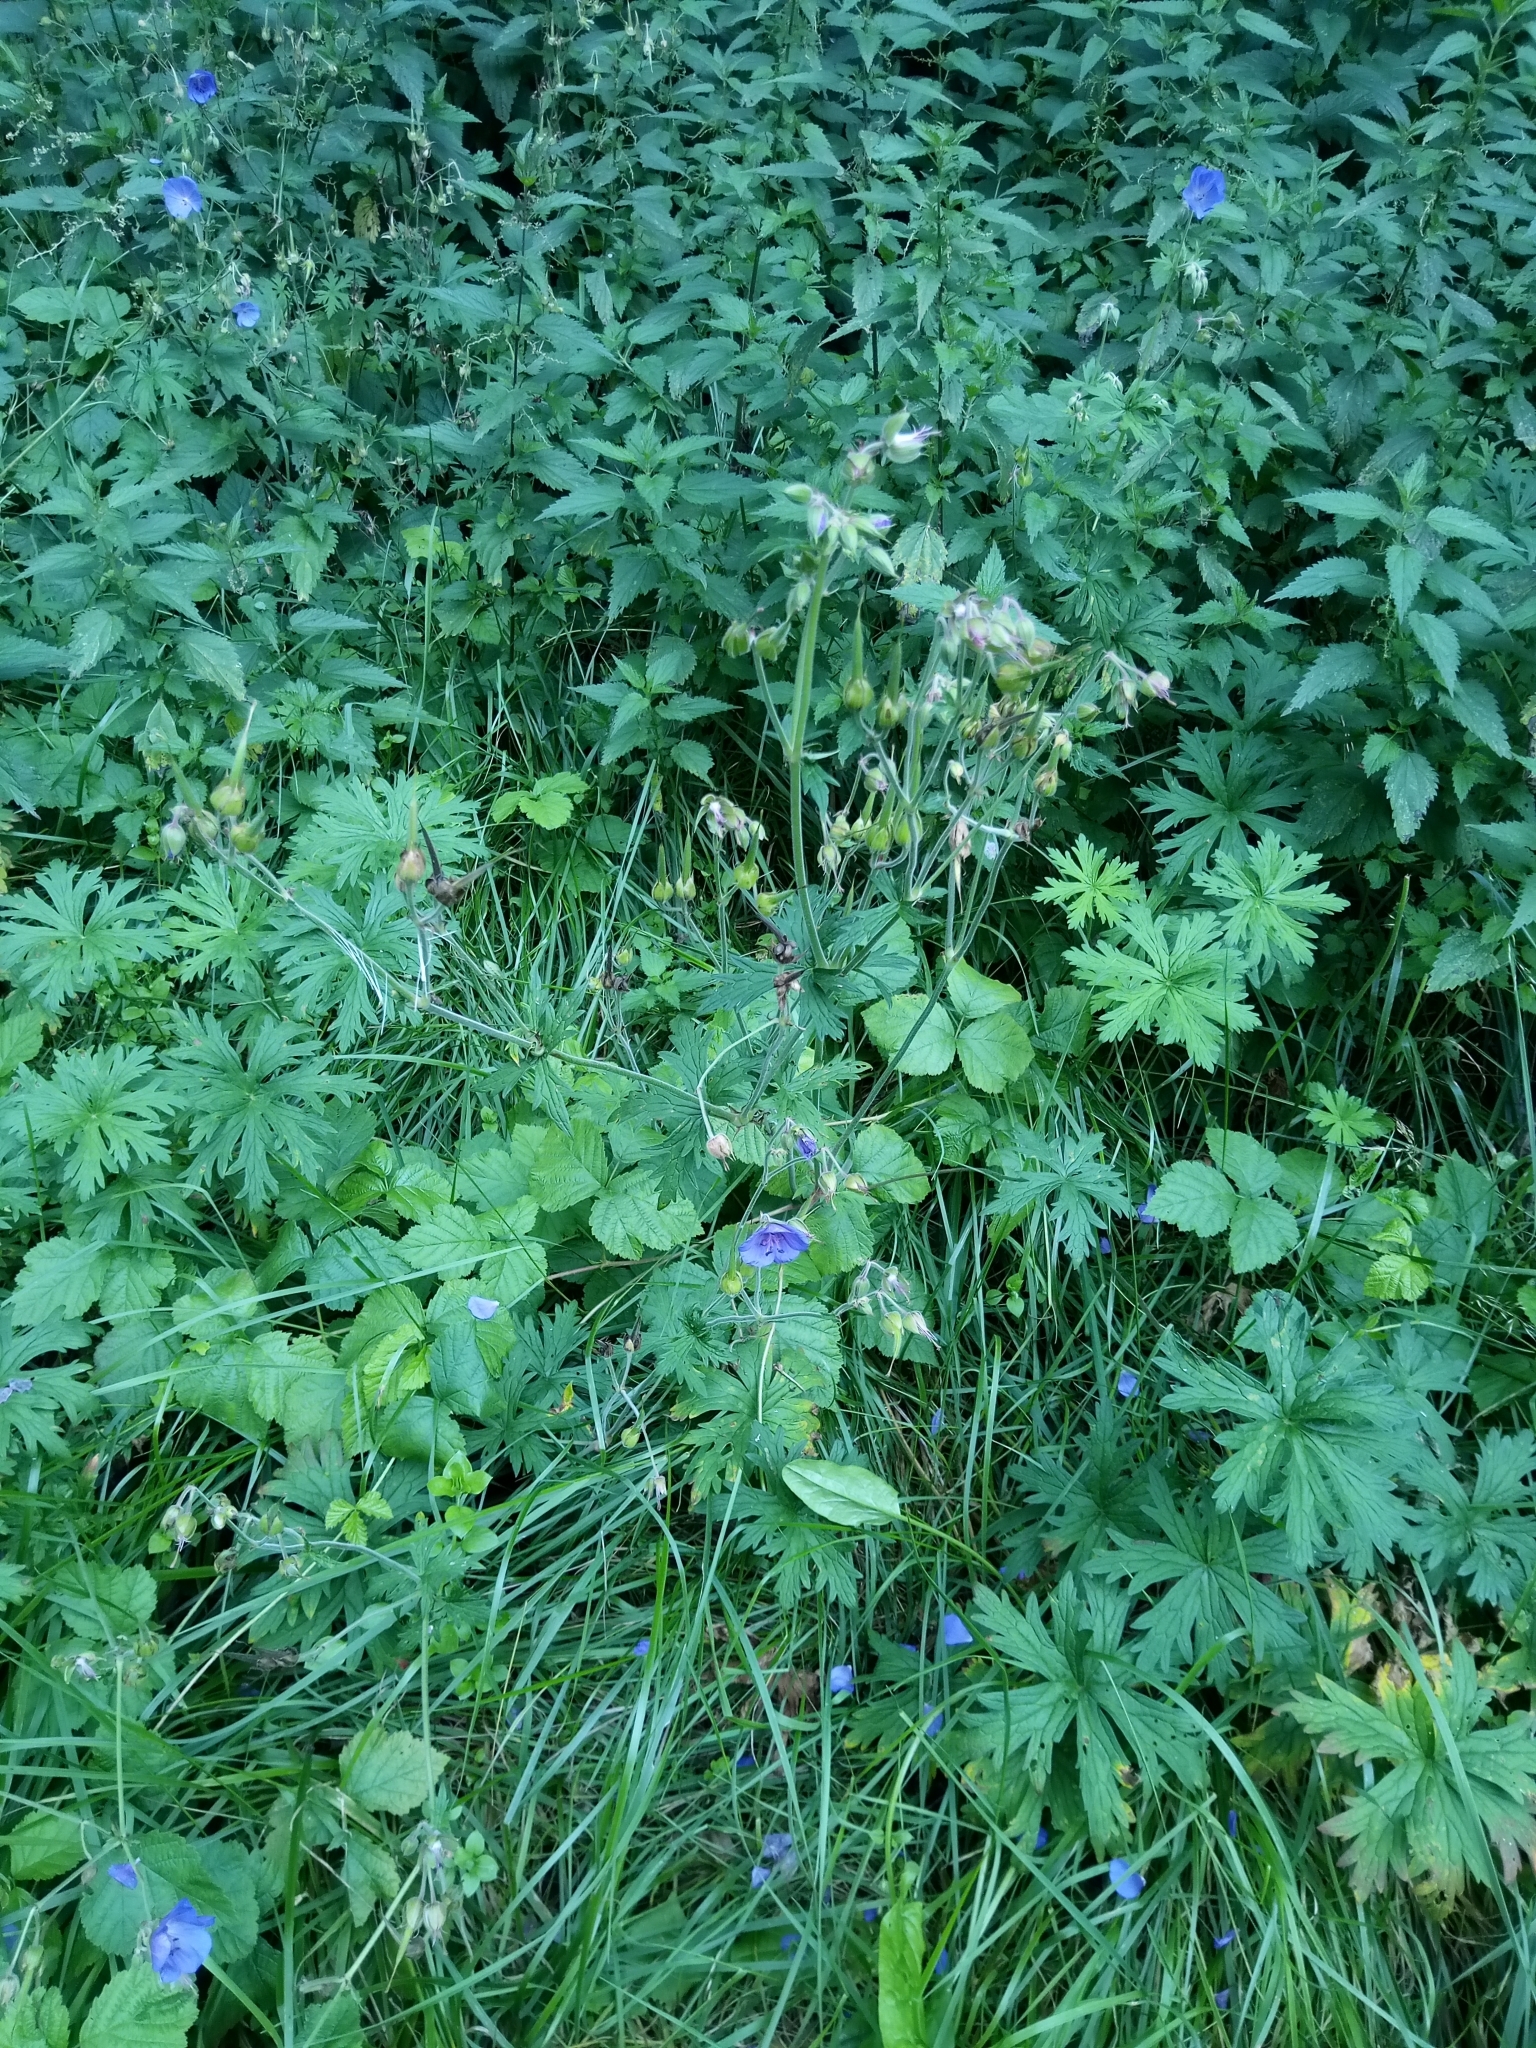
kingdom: Plantae
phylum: Tracheophyta
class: Magnoliopsida
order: Geraniales
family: Geraniaceae
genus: Geranium
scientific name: Geranium pratense
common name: Meadow crane's-bill
